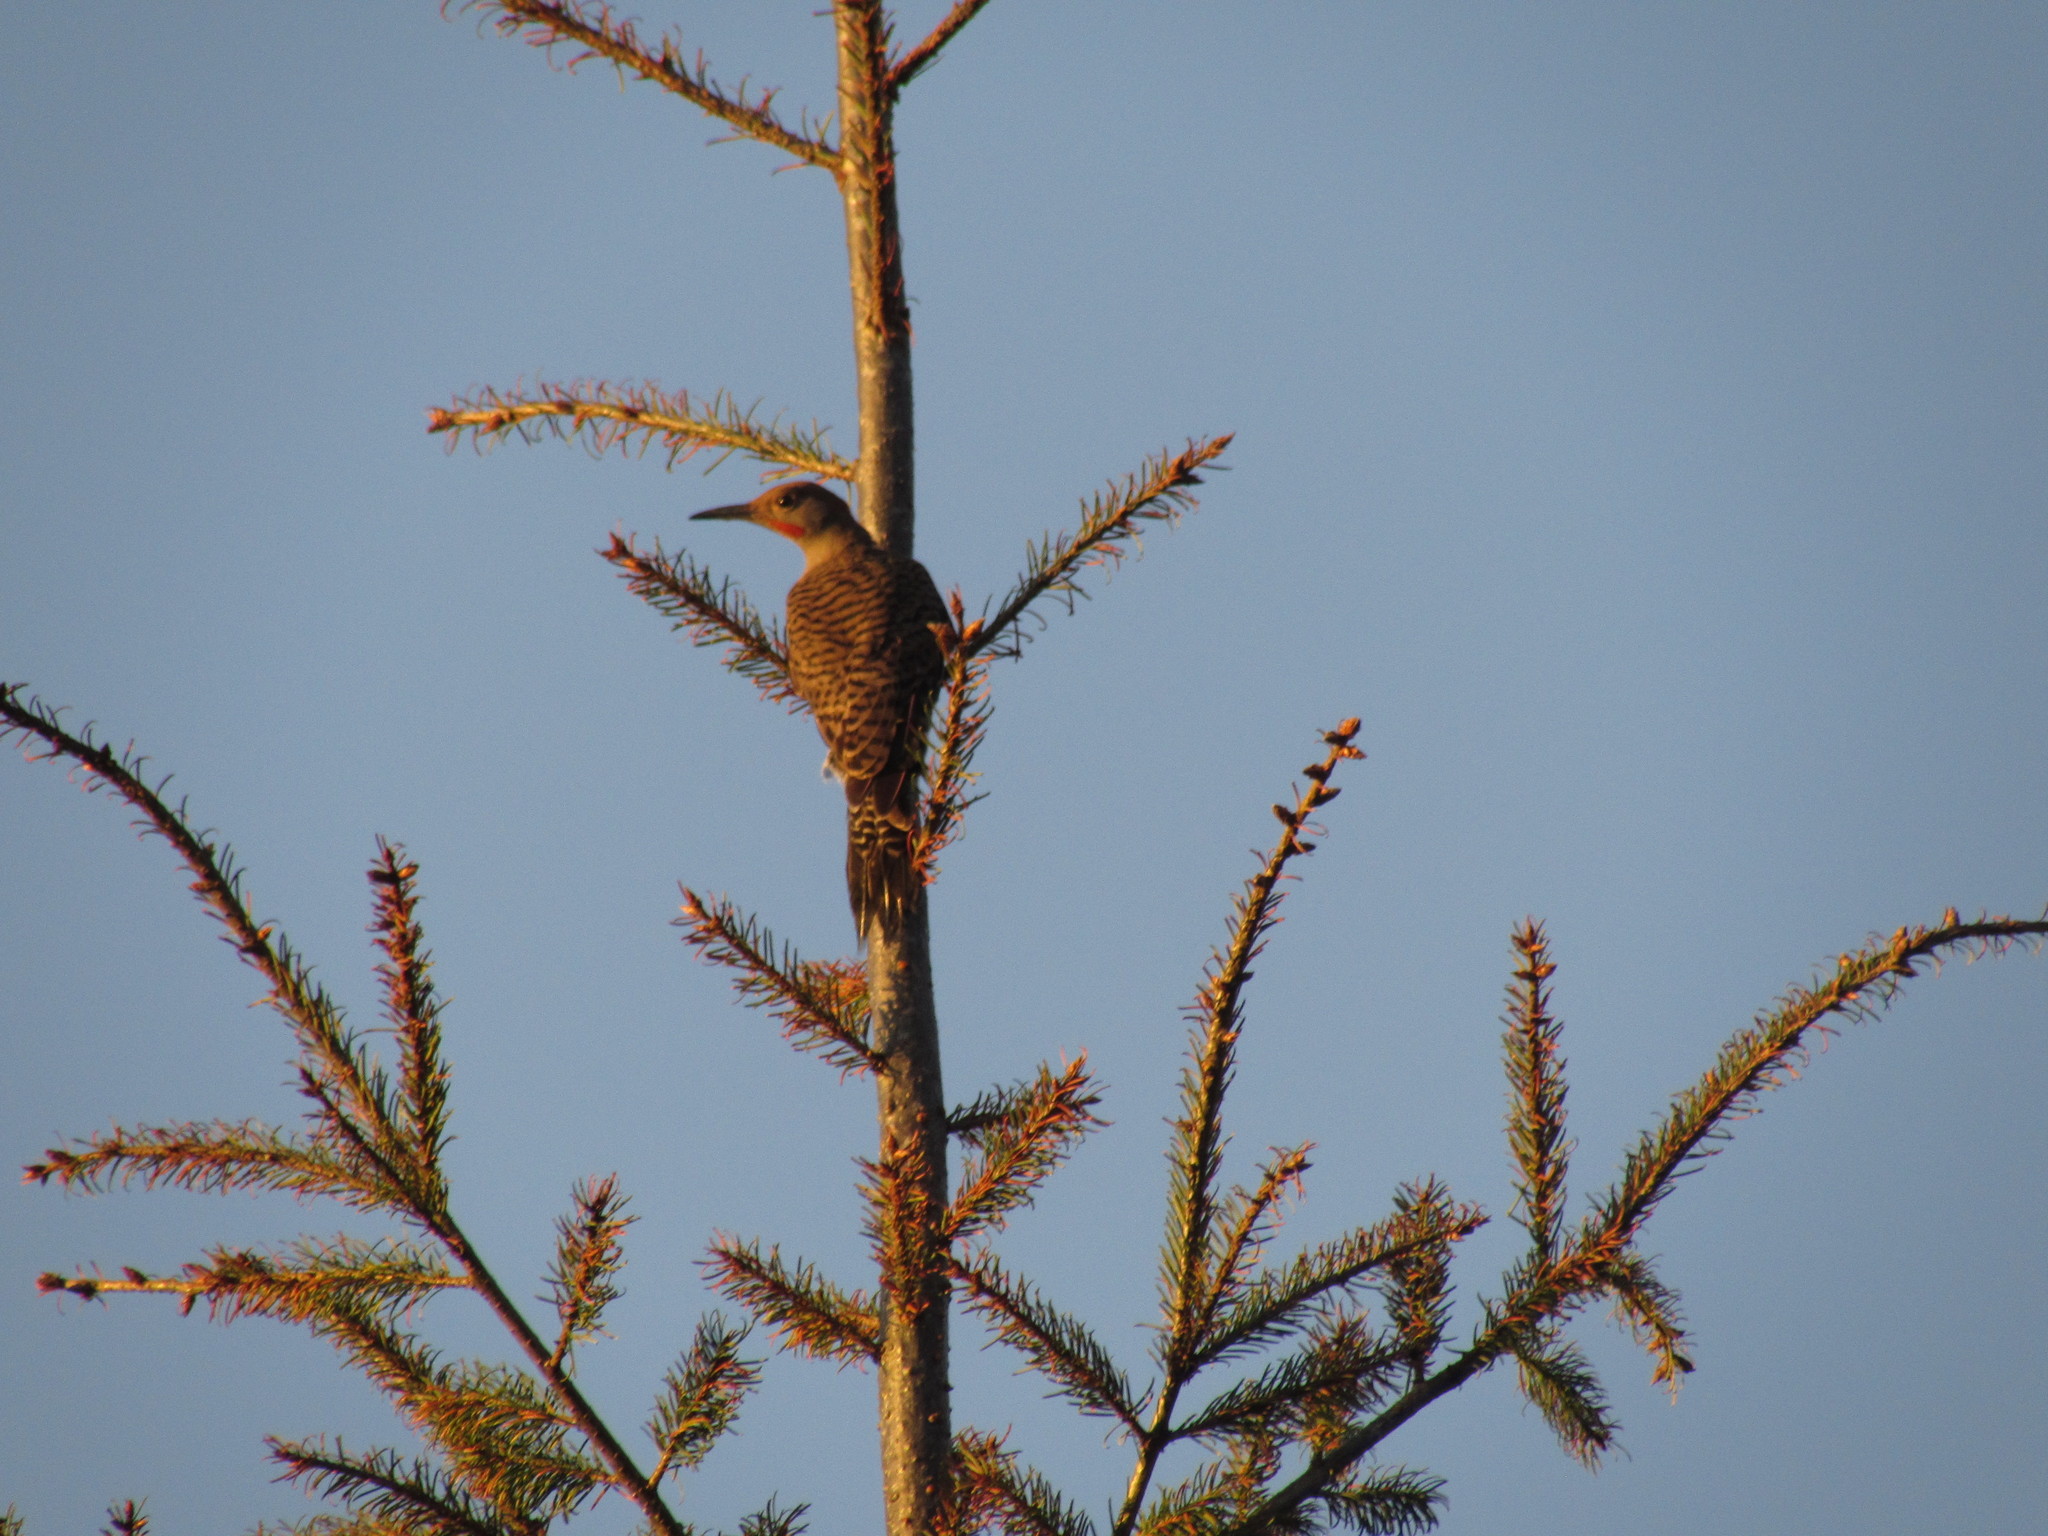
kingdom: Animalia
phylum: Chordata
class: Aves
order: Piciformes
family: Picidae
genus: Colaptes
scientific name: Colaptes auratus
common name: Northern flicker
